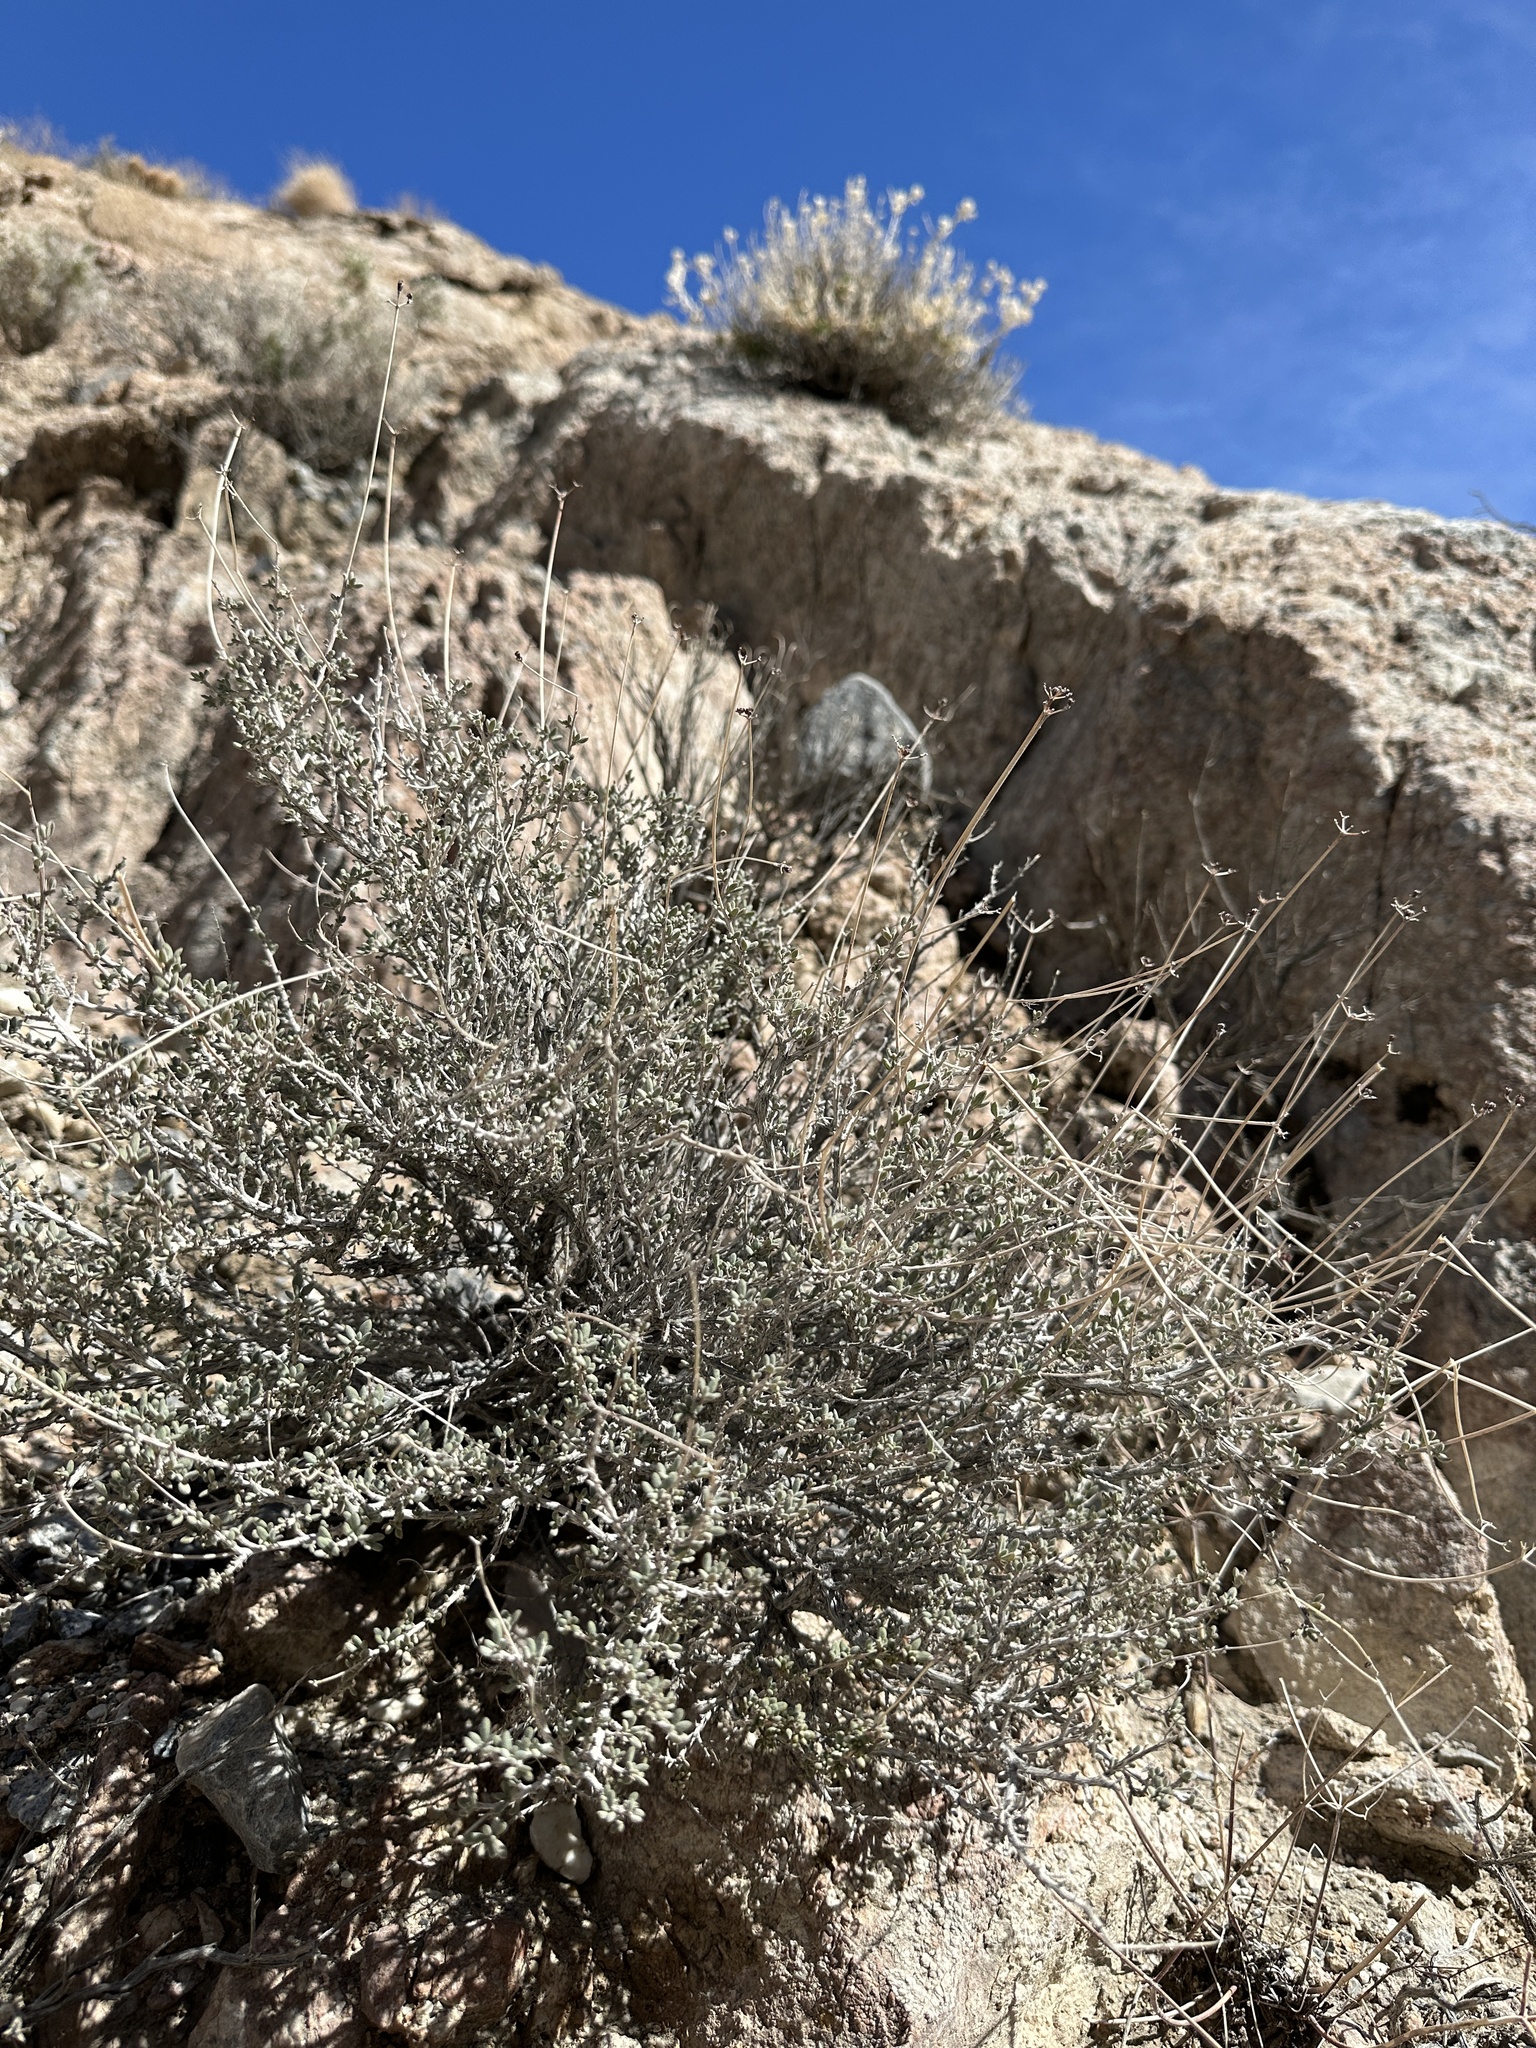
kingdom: Plantae
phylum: Tracheophyta
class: Magnoliopsida
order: Caryophyllales
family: Polygonaceae
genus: Eriogonum
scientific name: Eriogonum fasciculatum
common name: California wild buckwheat
